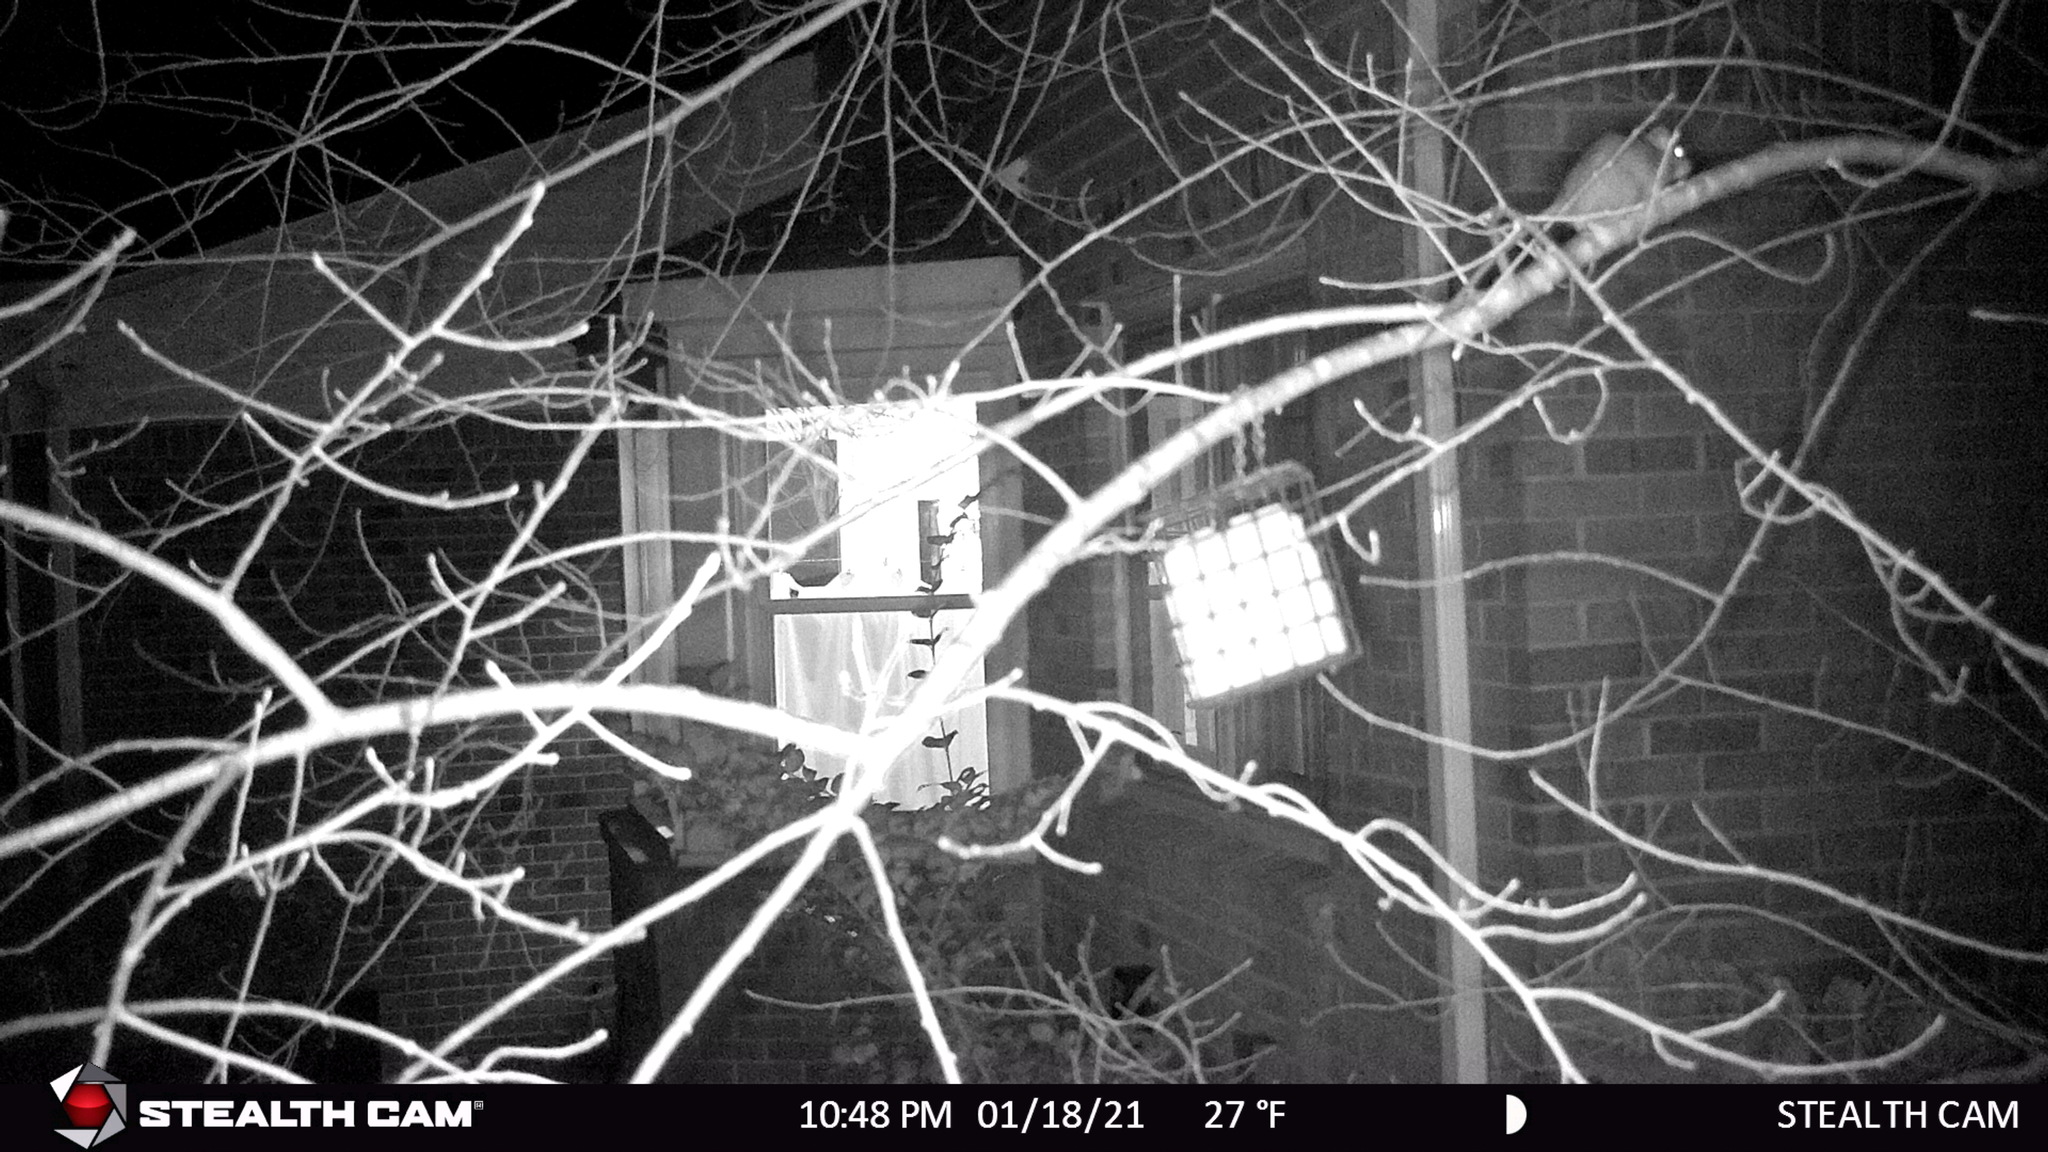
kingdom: Animalia
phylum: Chordata
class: Mammalia
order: Rodentia
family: Muridae
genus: Rattus
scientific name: Rattus rattus
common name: Black rat
